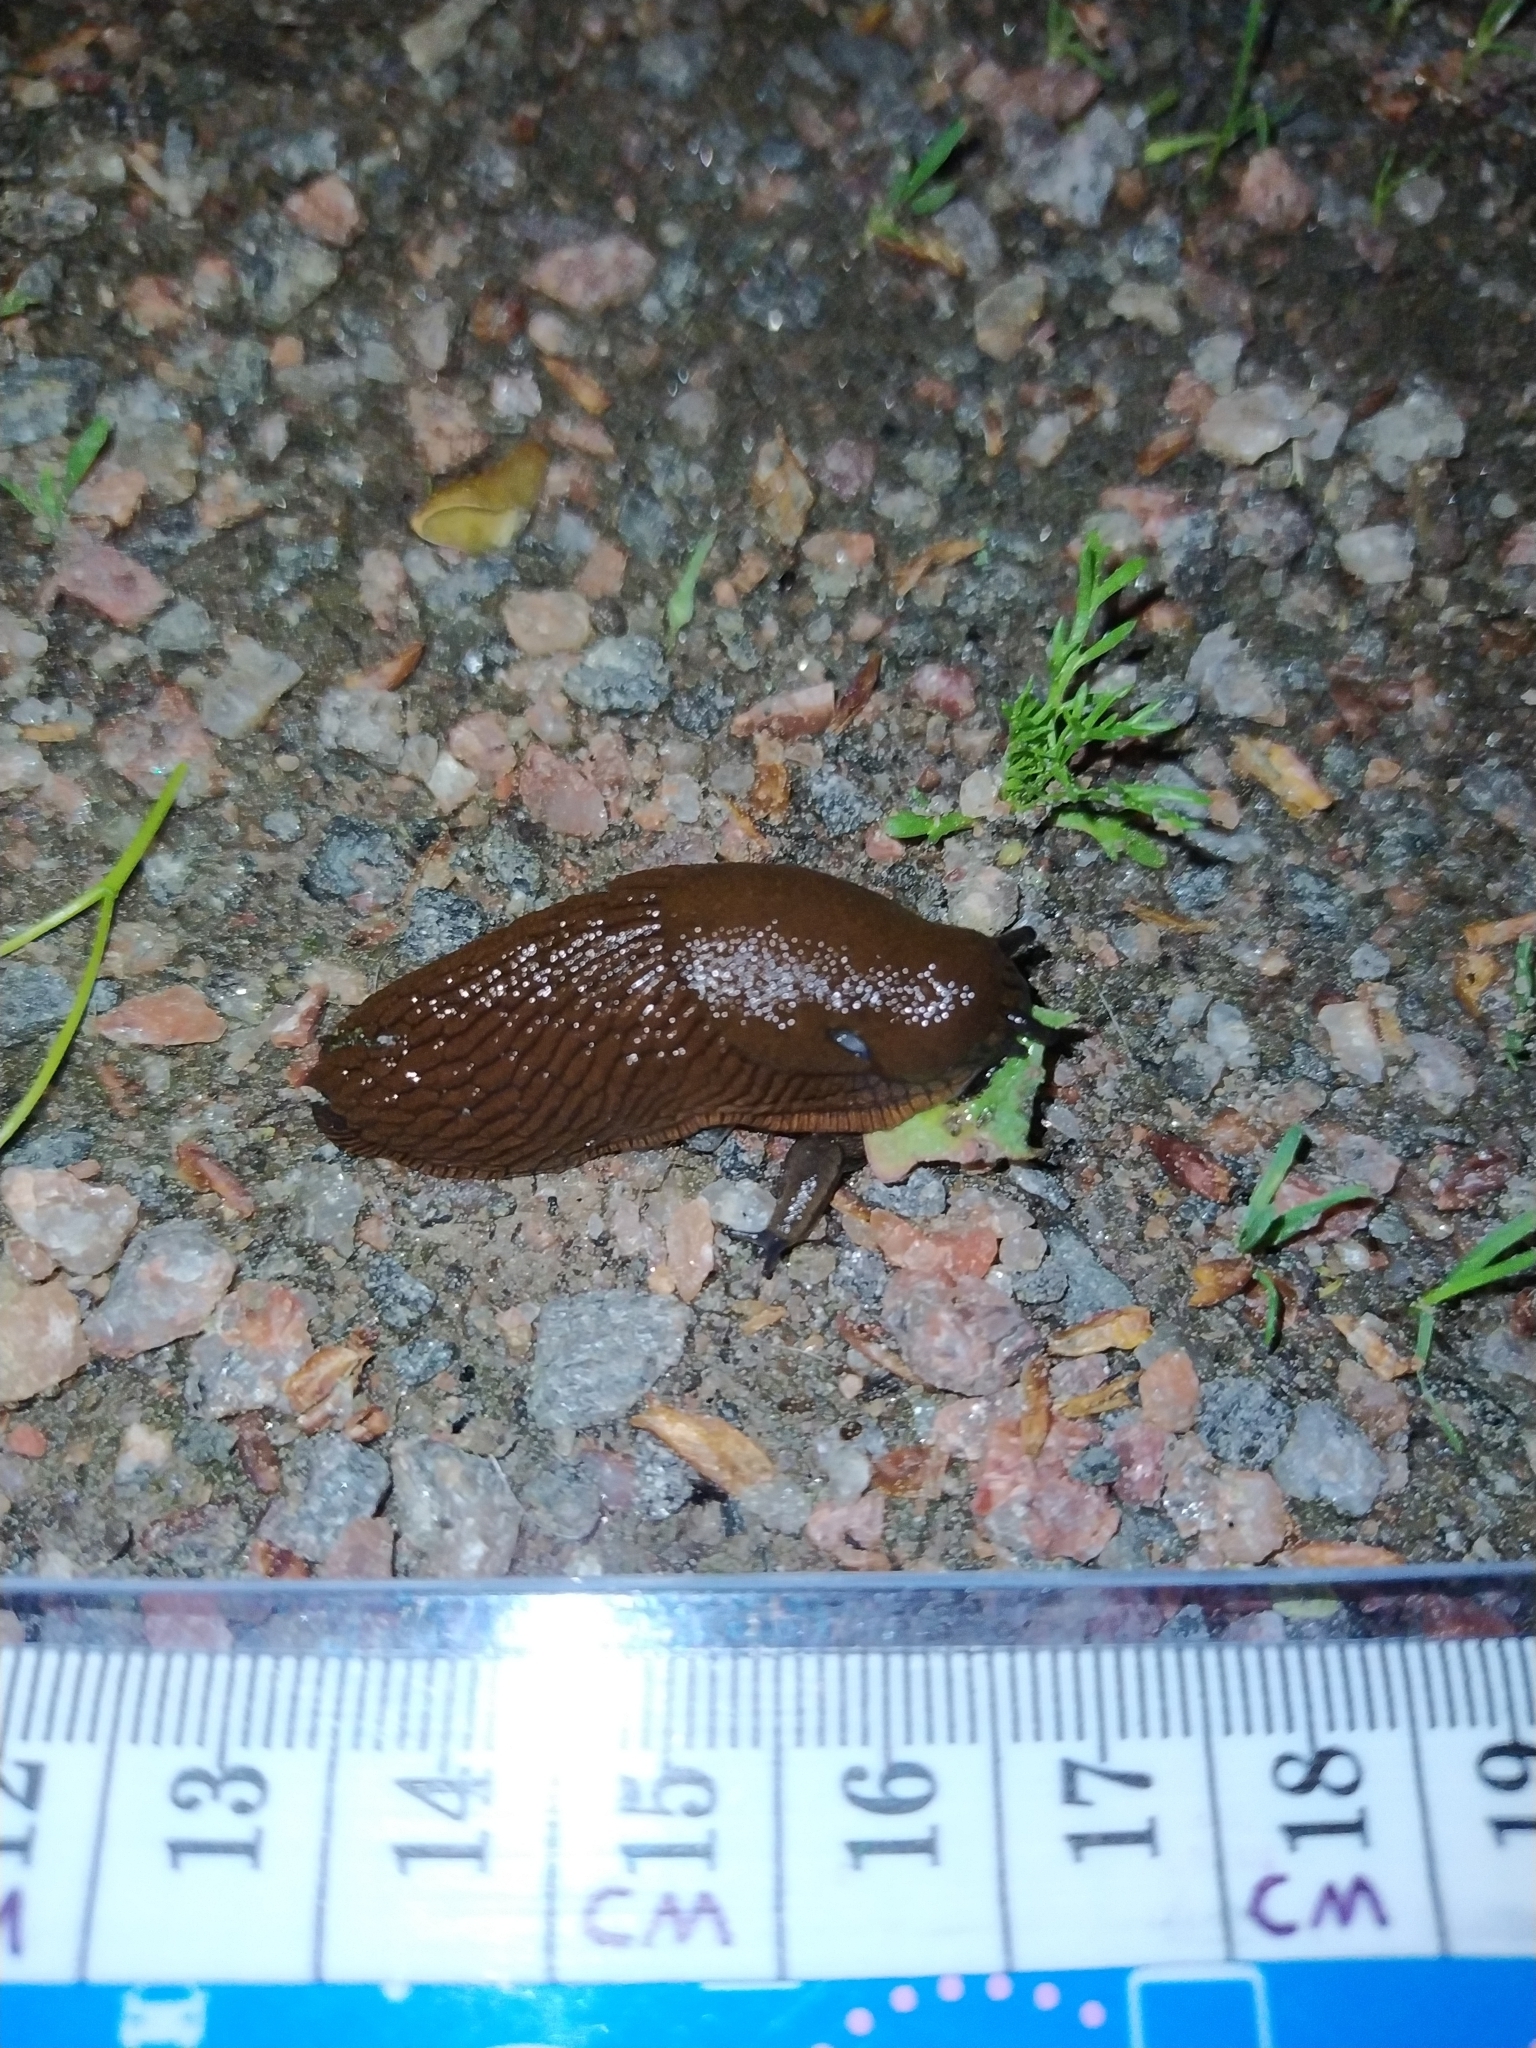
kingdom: Animalia
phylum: Mollusca
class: Gastropoda
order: Stylommatophora
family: Arionidae
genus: Arion
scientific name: Arion vulgaris
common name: Lusitanian slug
